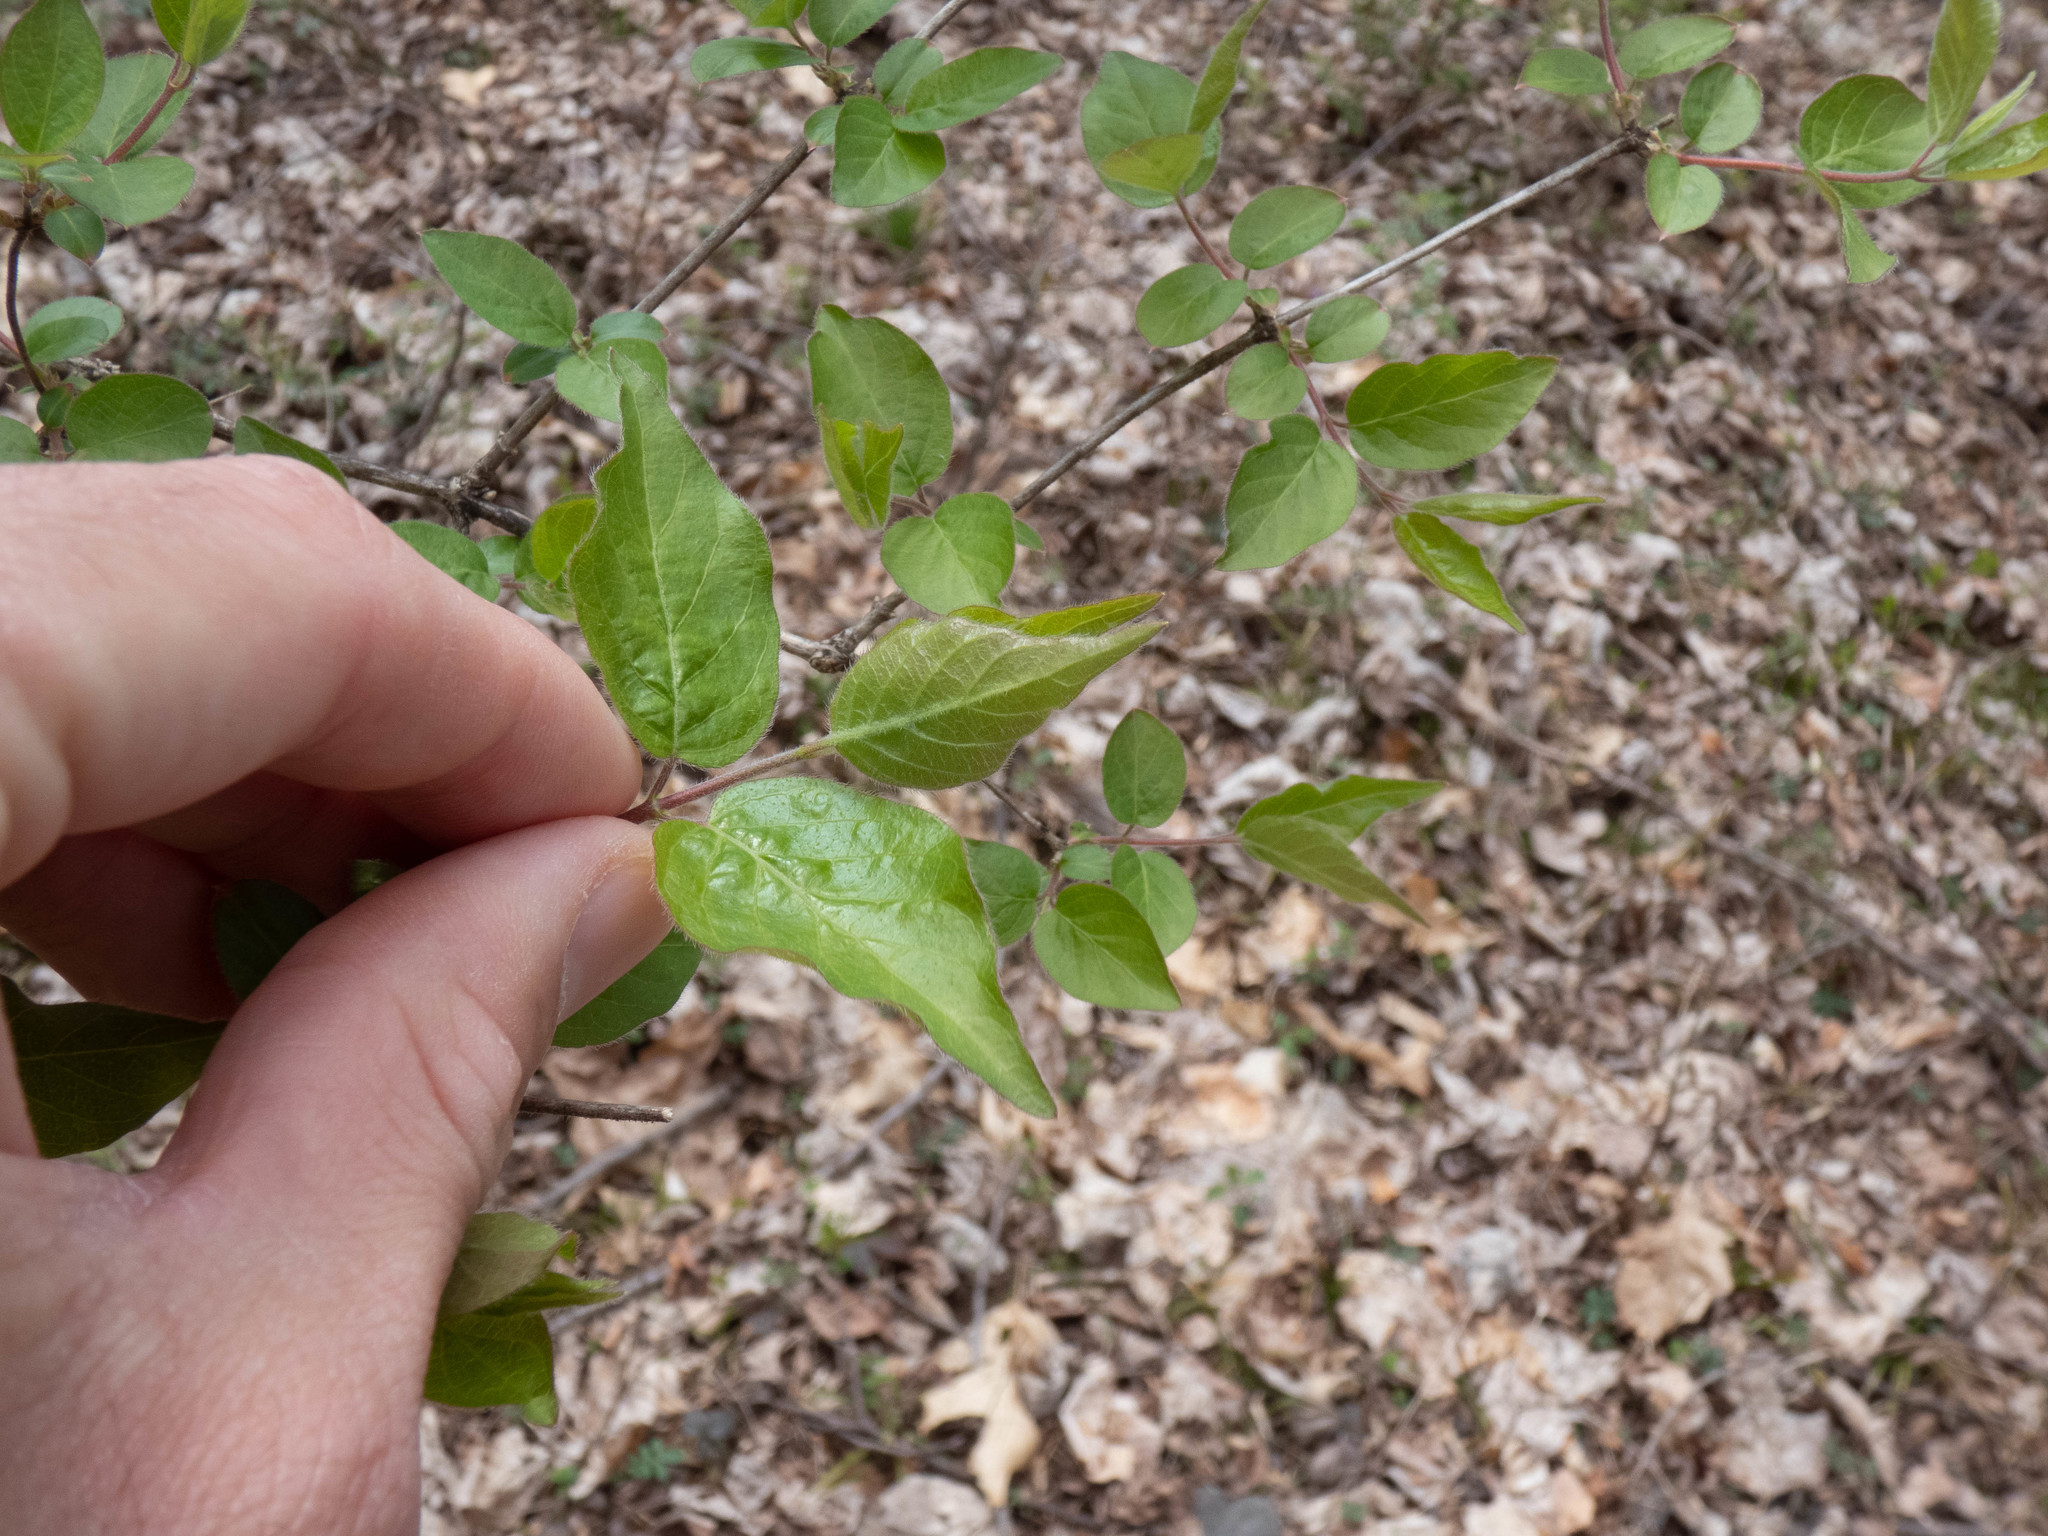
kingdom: Plantae
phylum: Tracheophyta
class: Magnoliopsida
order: Dipsacales
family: Caprifoliaceae
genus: Lonicera
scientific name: Lonicera maackii
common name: Amur honeysuckle
